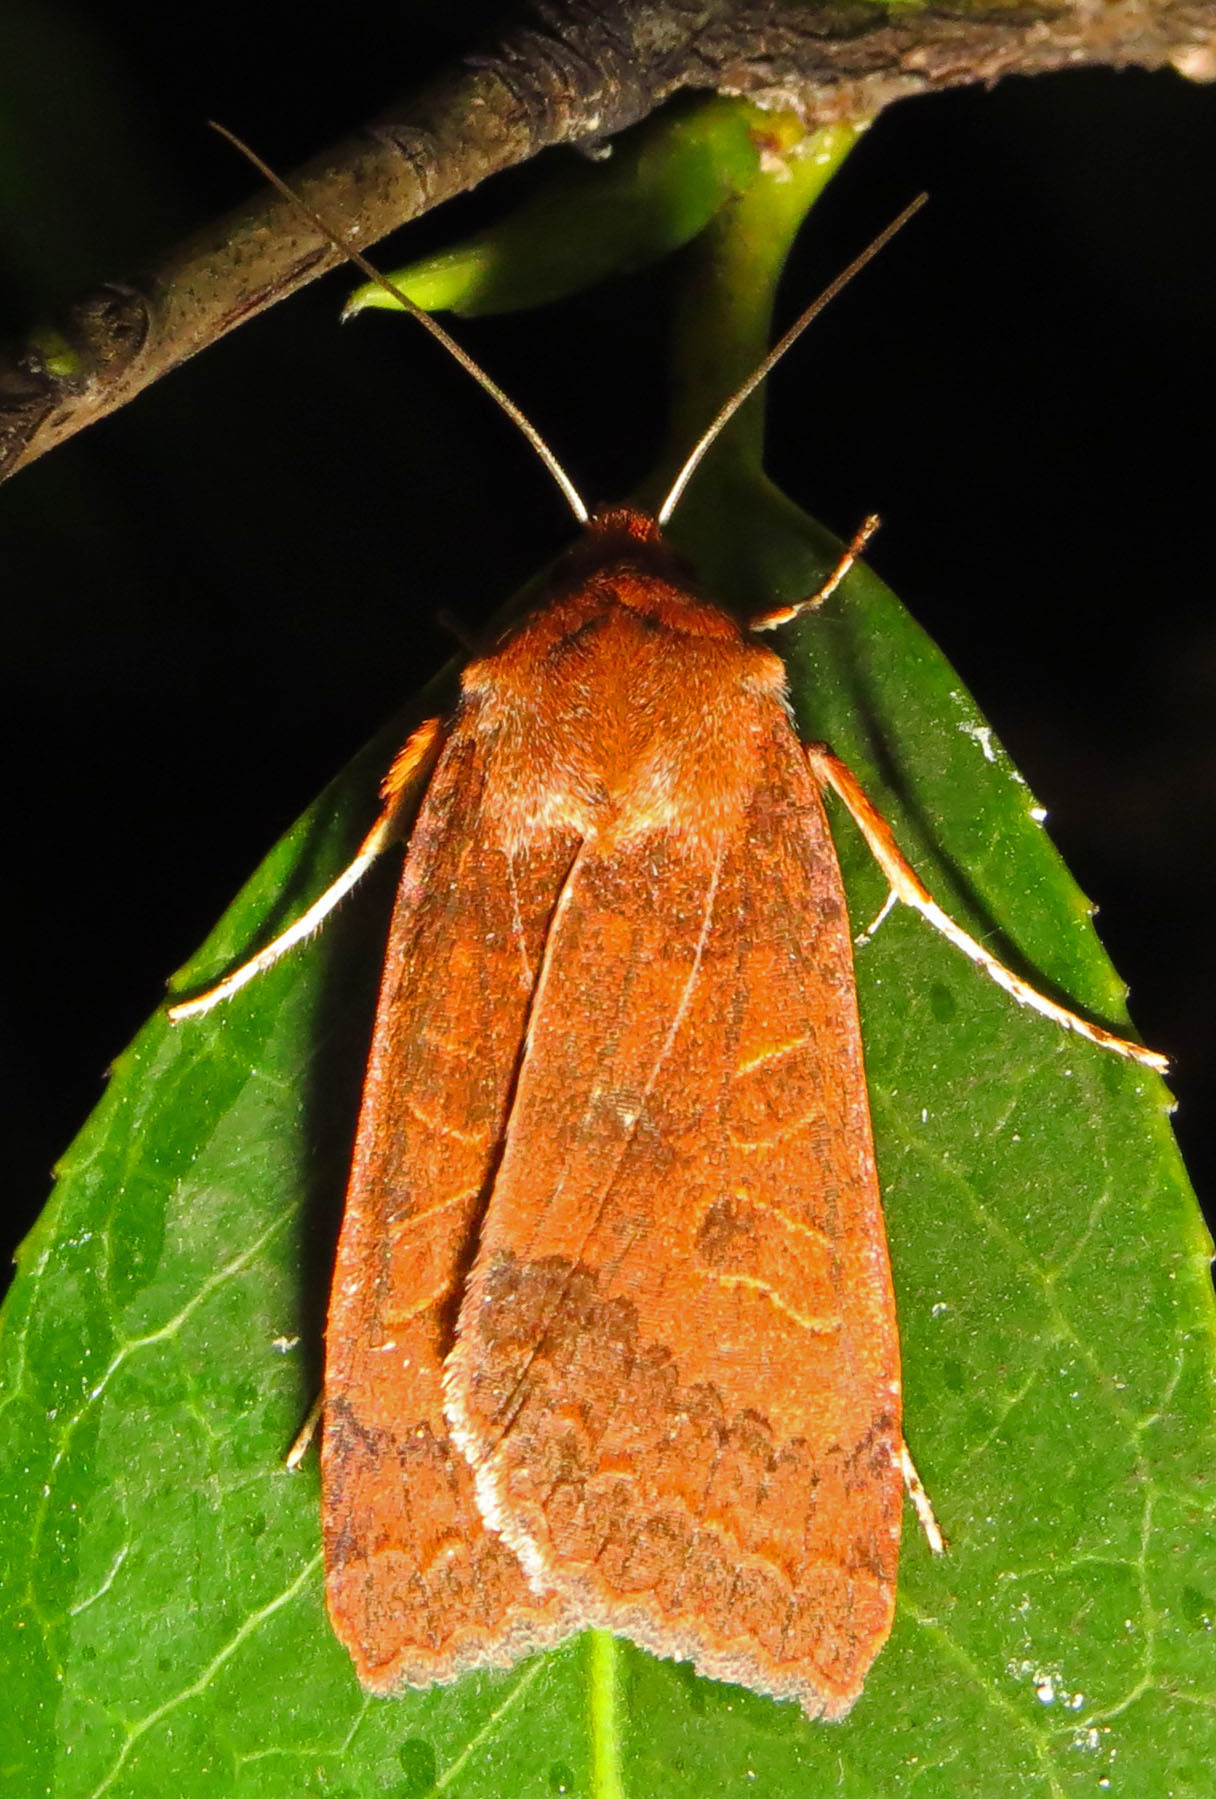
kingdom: Animalia
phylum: Arthropoda
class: Insecta
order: Lepidoptera
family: Noctuidae
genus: Sericaglaea
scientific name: Sericaglaea signata
